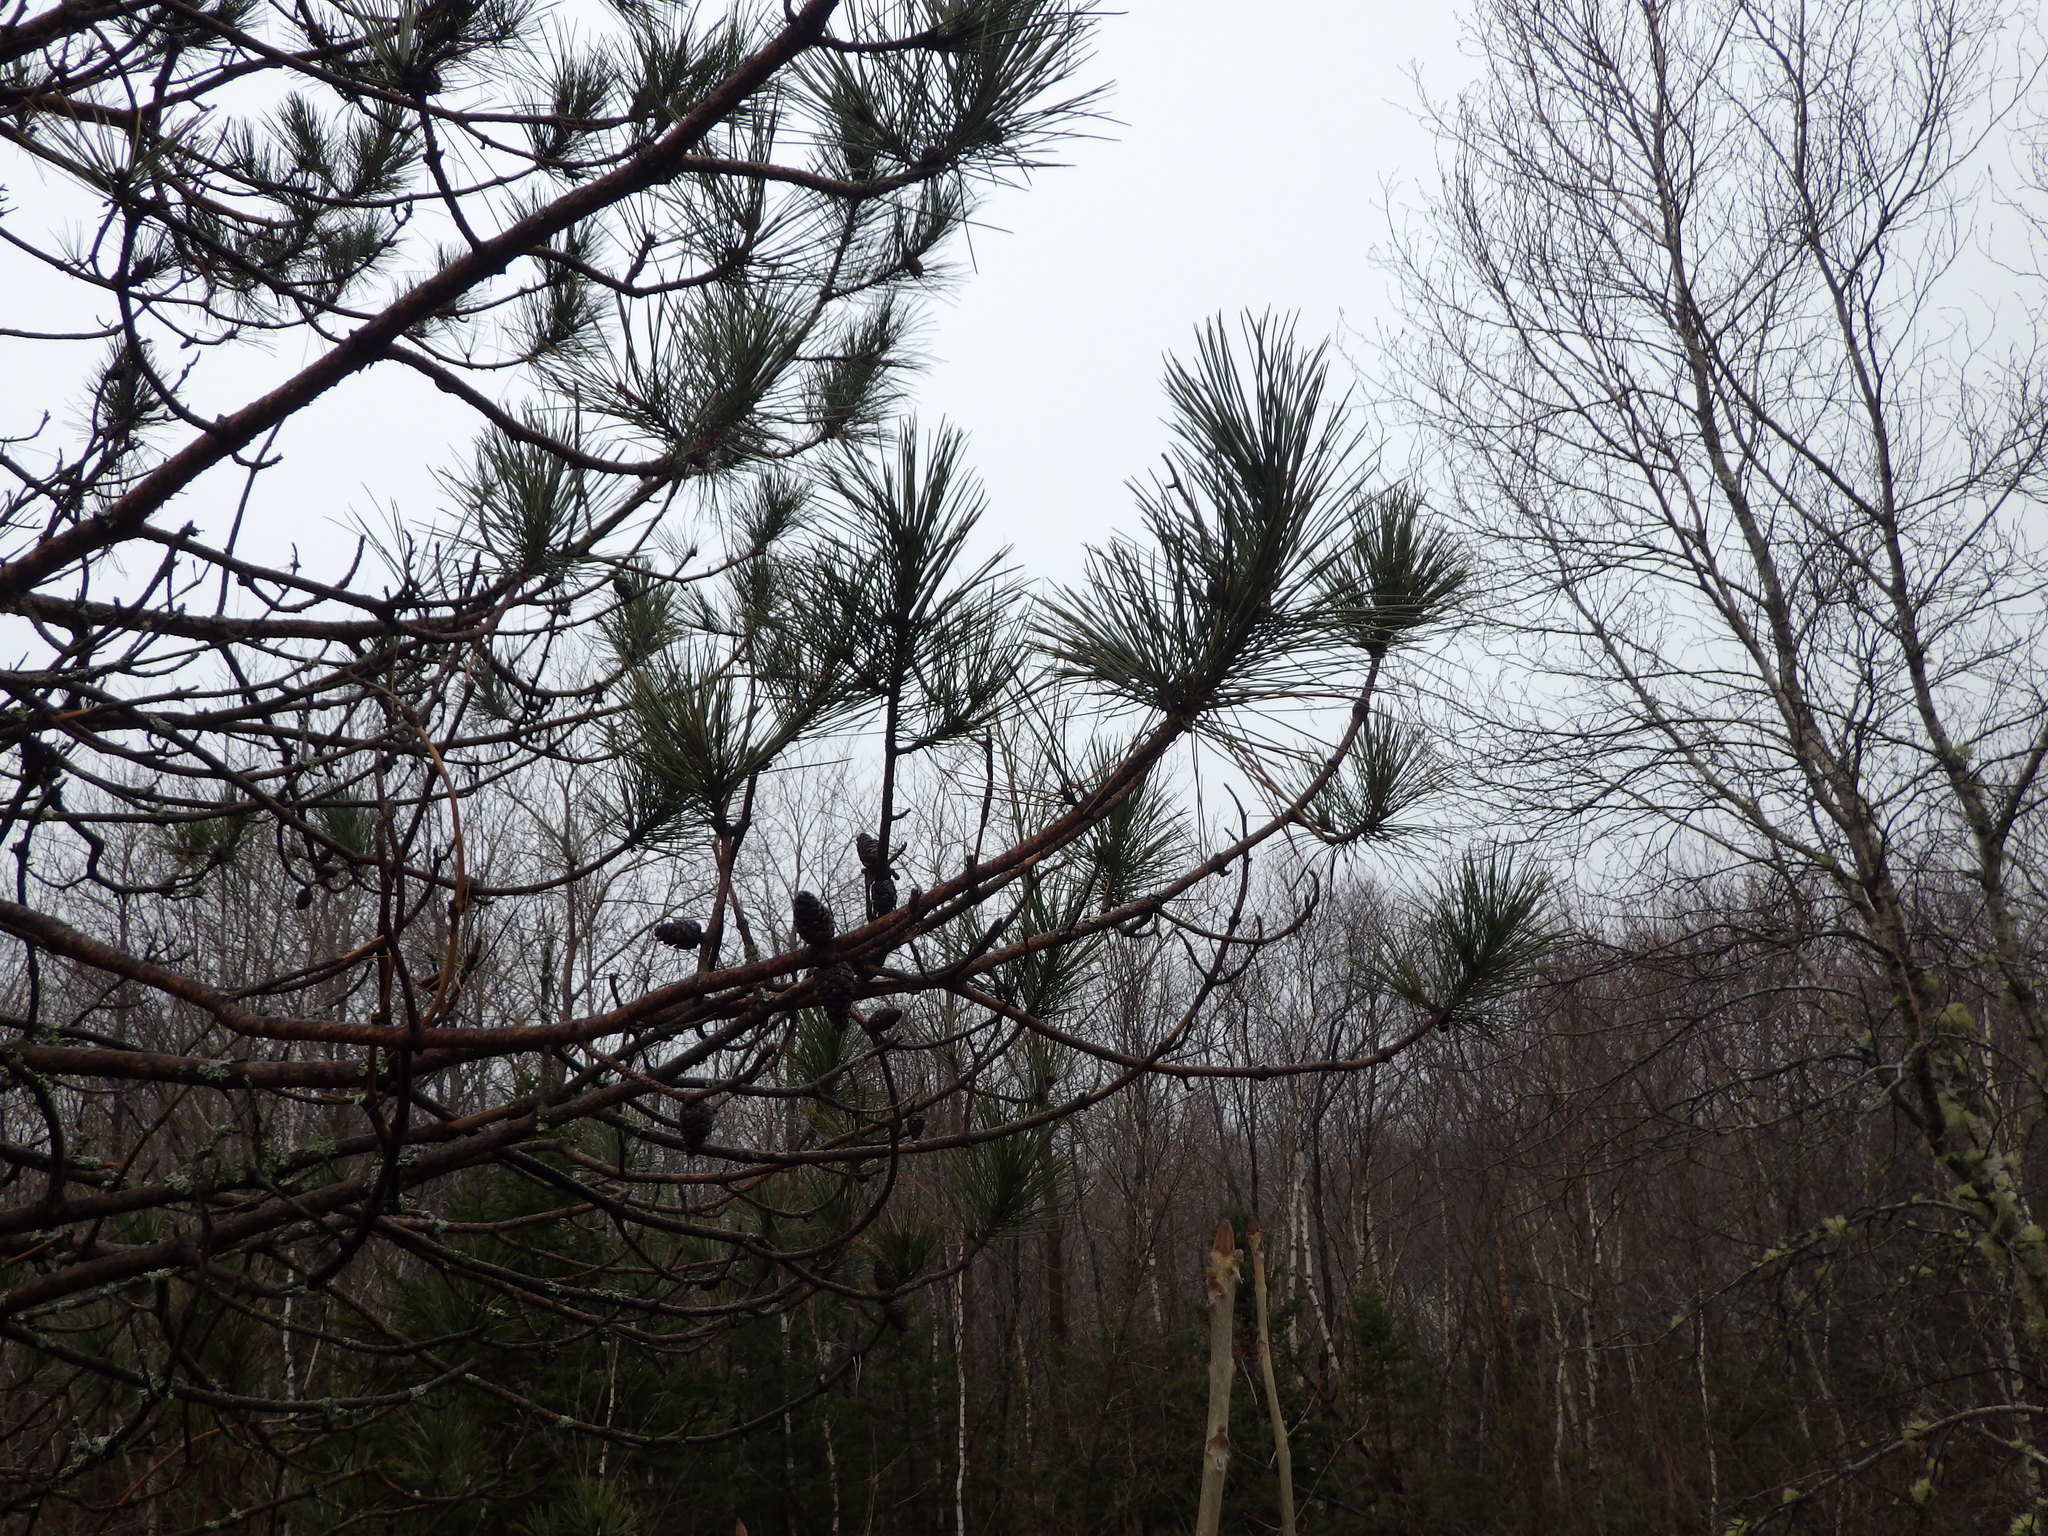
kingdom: Plantae
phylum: Tracheophyta
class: Pinopsida
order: Pinales
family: Pinaceae
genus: Pinus
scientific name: Pinus resinosa
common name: Norway pine
